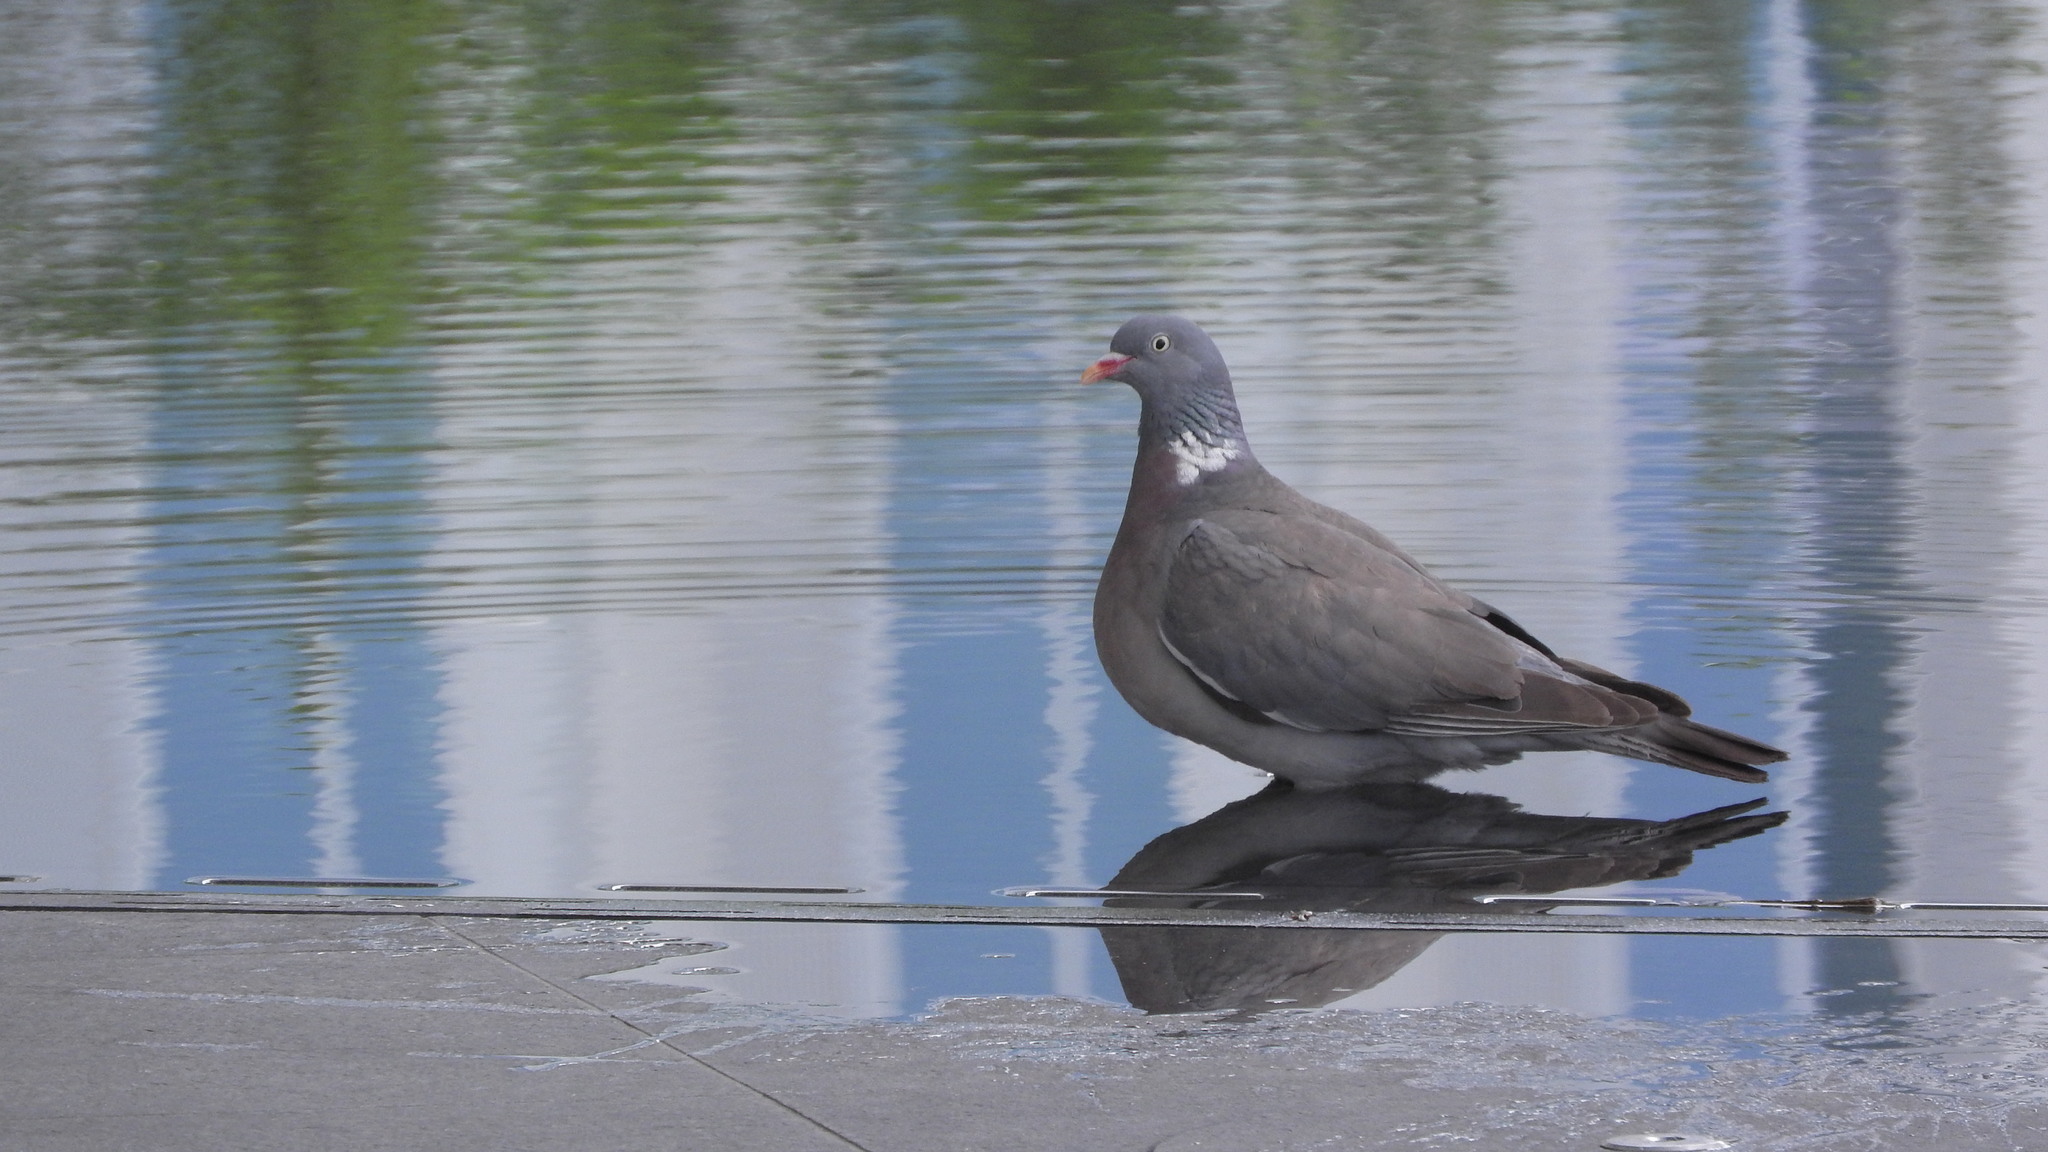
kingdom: Animalia
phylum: Chordata
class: Aves
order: Columbiformes
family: Columbidae
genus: Columba
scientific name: Columba palumbus
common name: Common wood pigeon
